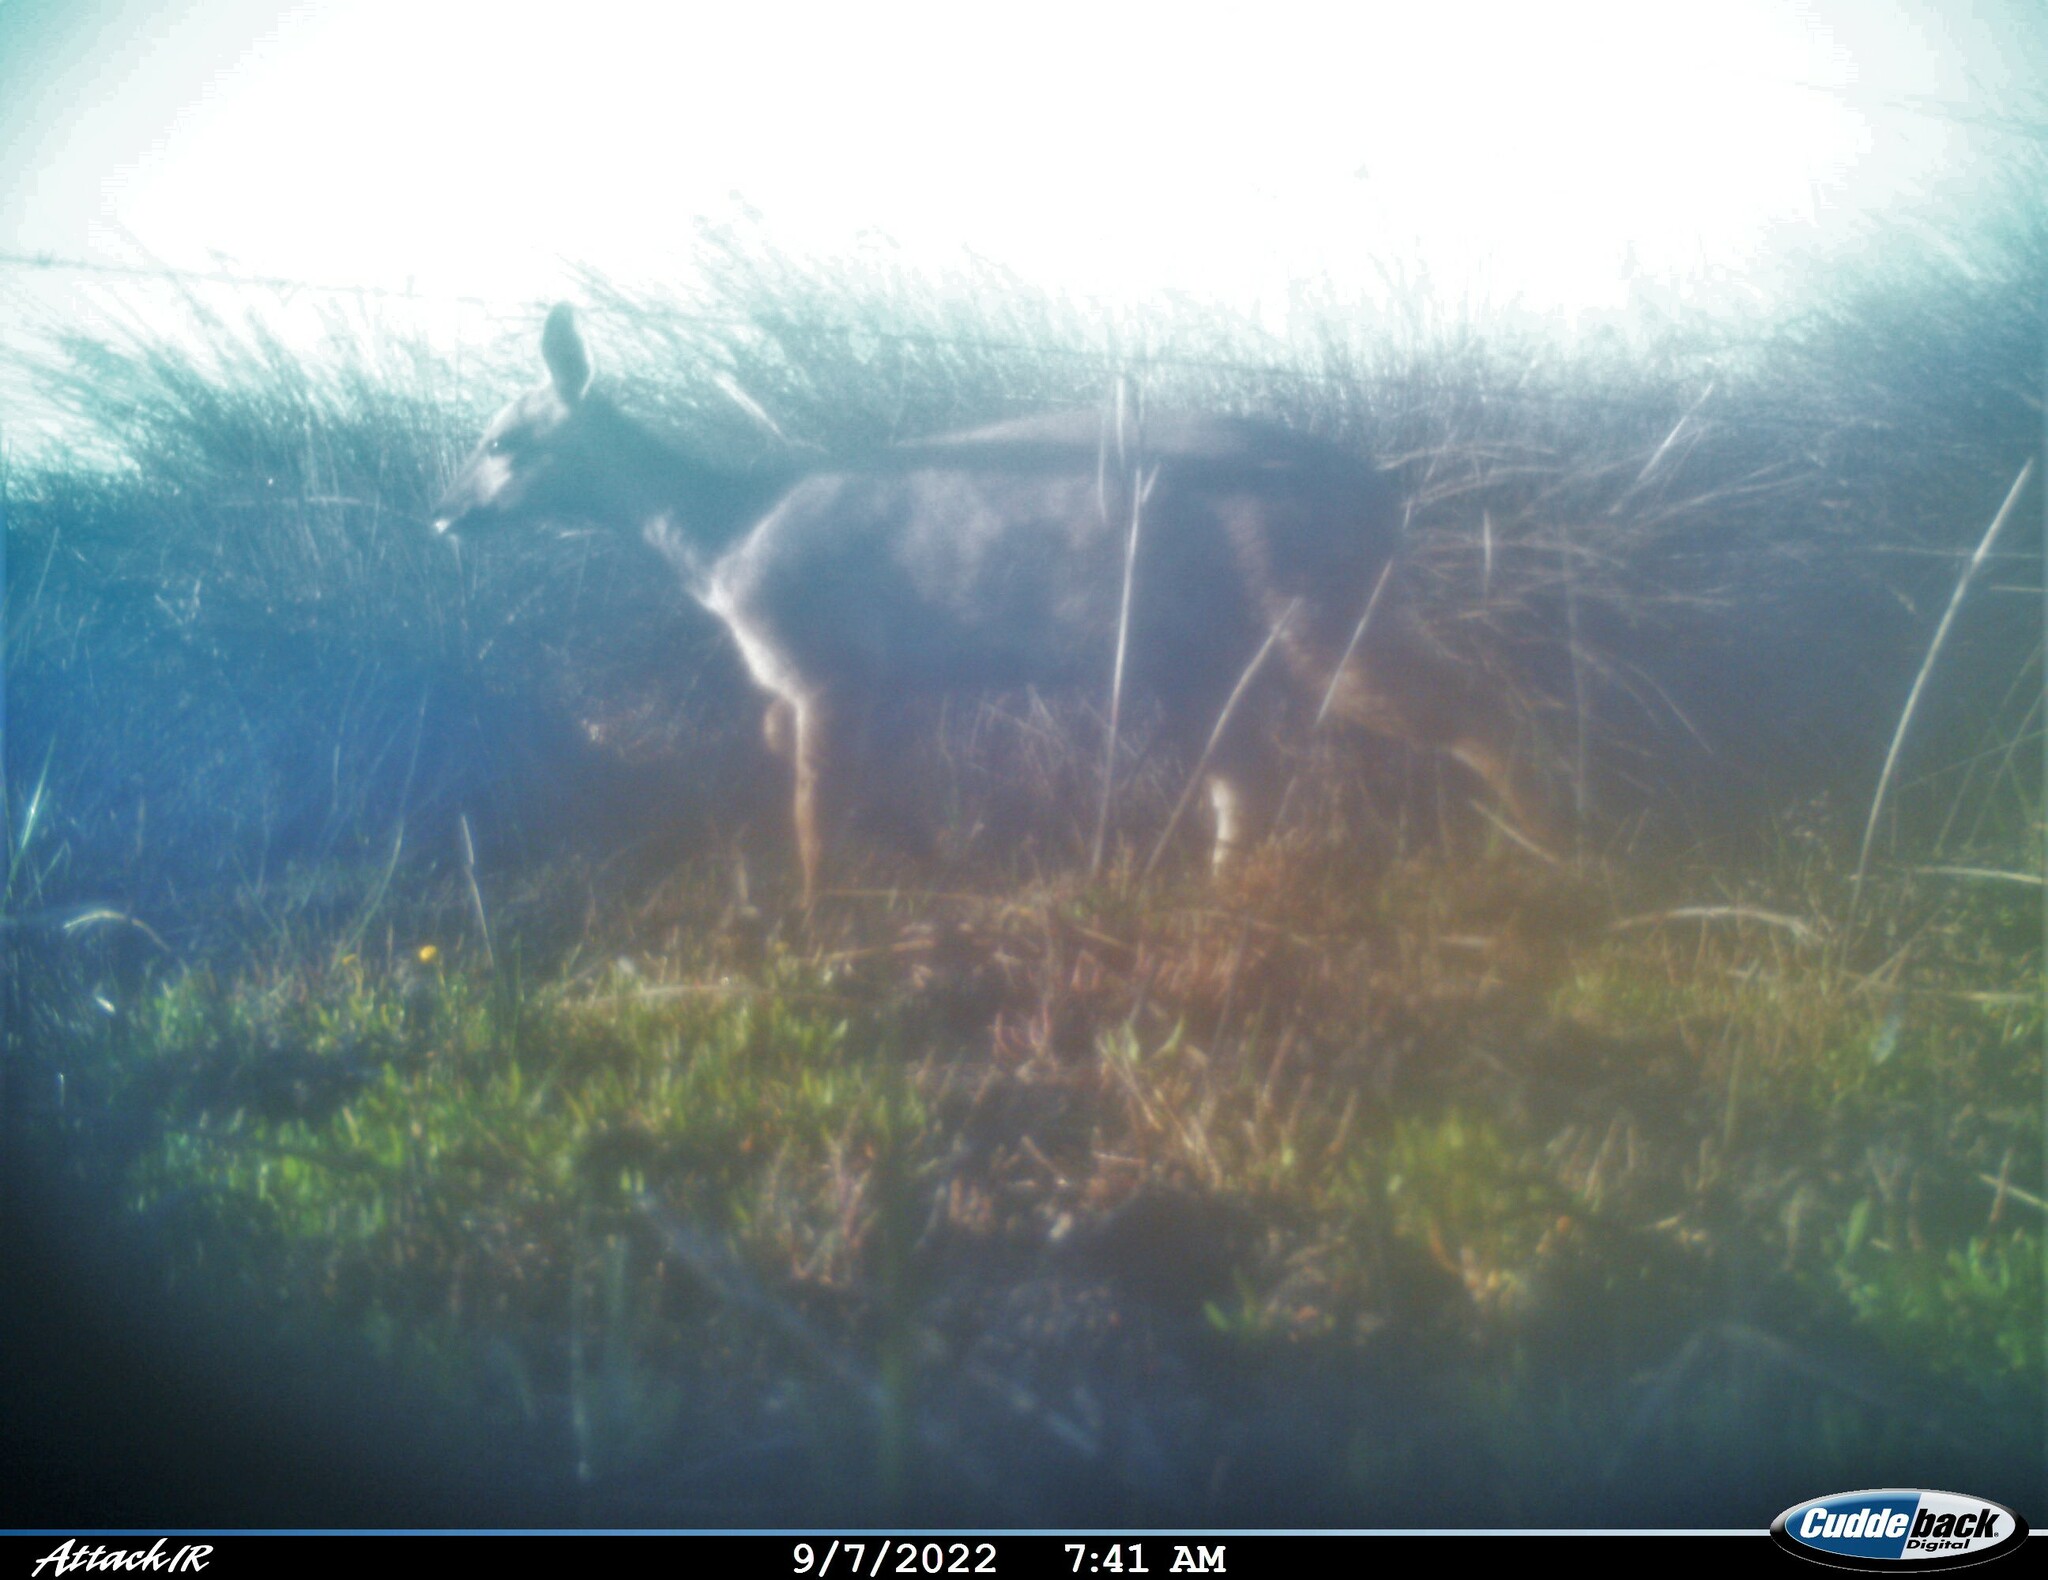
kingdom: Animalia
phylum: Chordata
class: Mammalia
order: Artiodactyla
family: Bovidae
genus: Tragelaphus
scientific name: Tragelaphus scriptus
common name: Bushbuck
